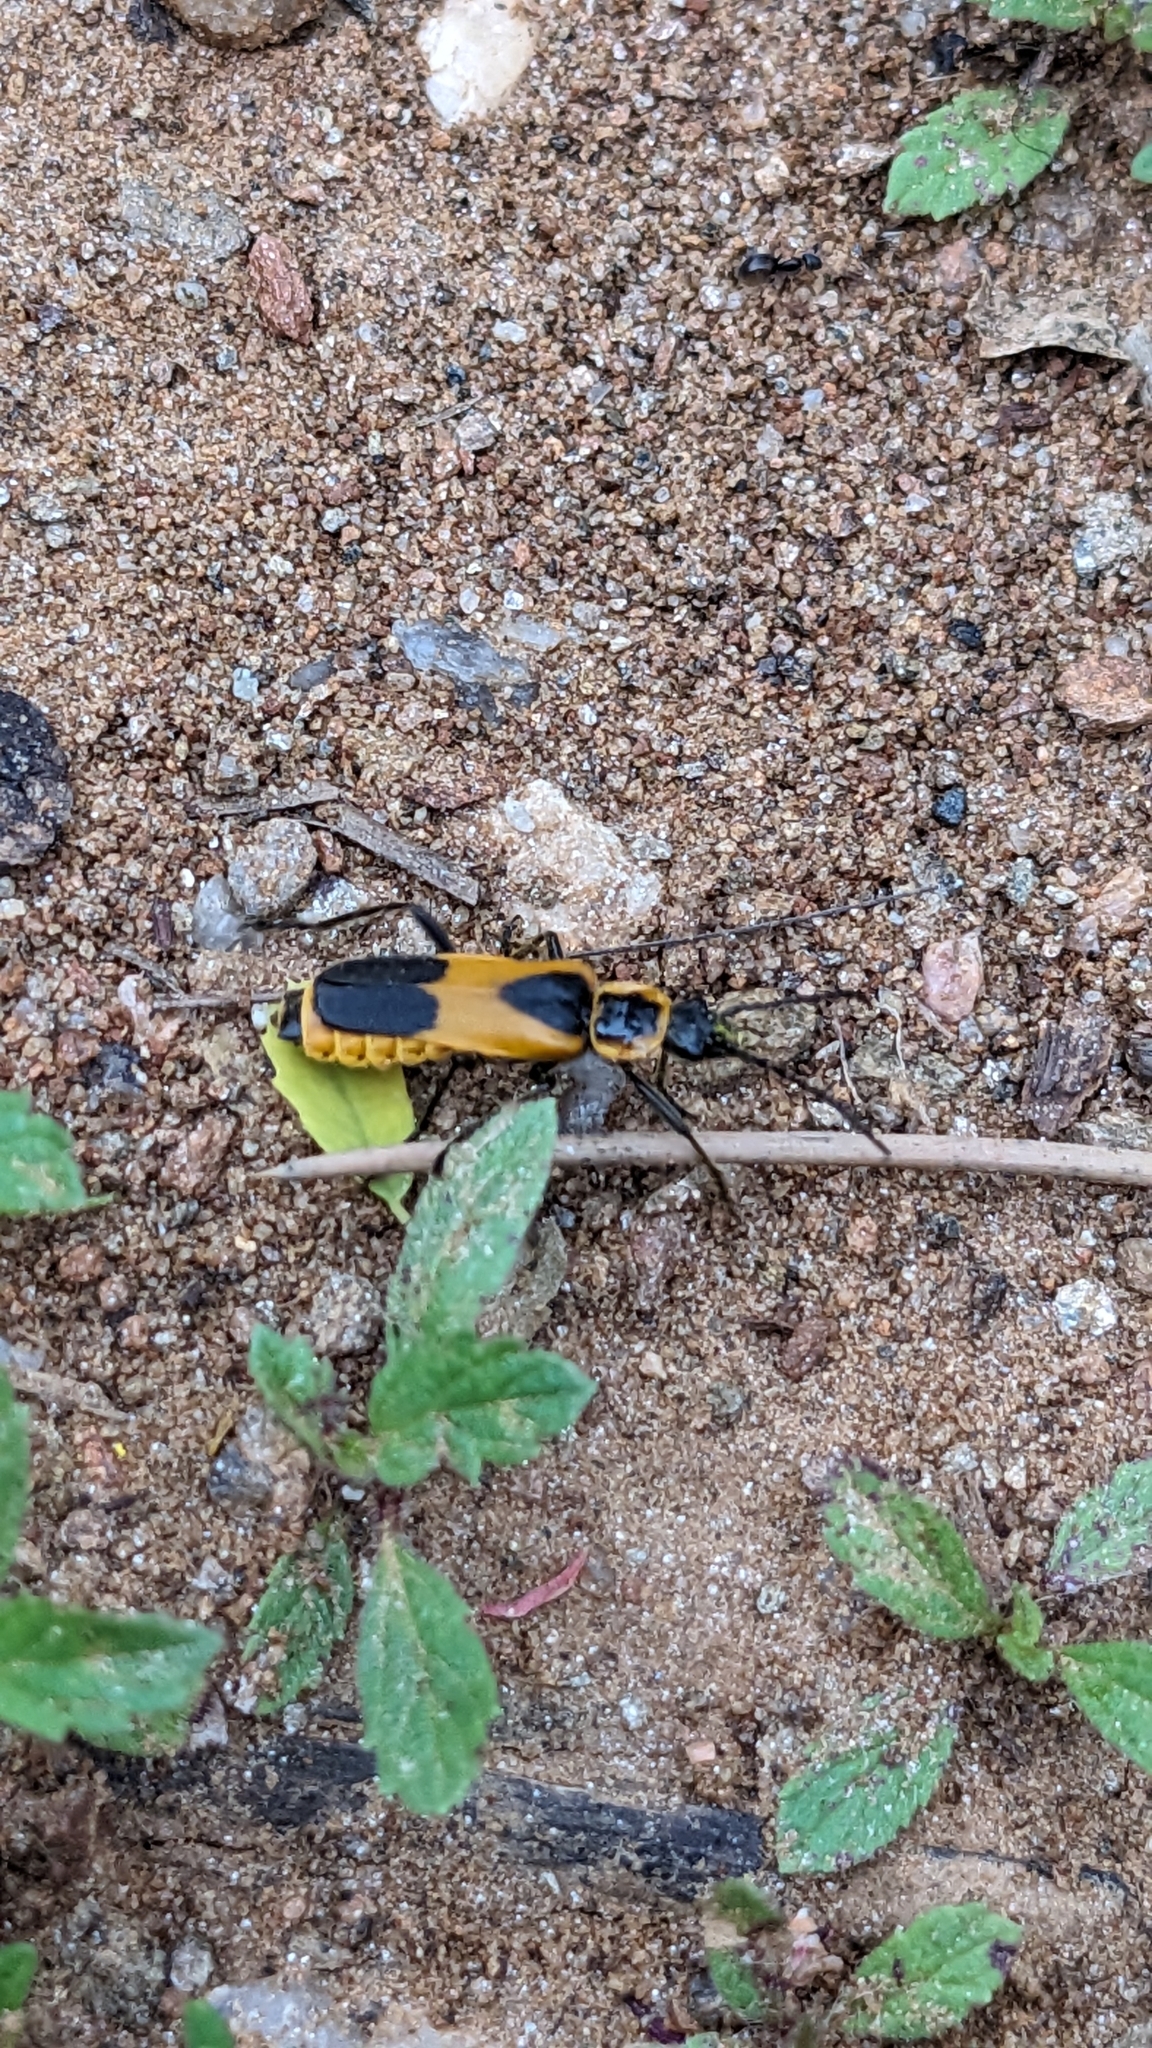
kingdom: Animalia
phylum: Arthropoda
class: Insecta
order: Coleoptera
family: Cantharidae
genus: Chauliognathus
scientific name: Chauliognathus basalis
